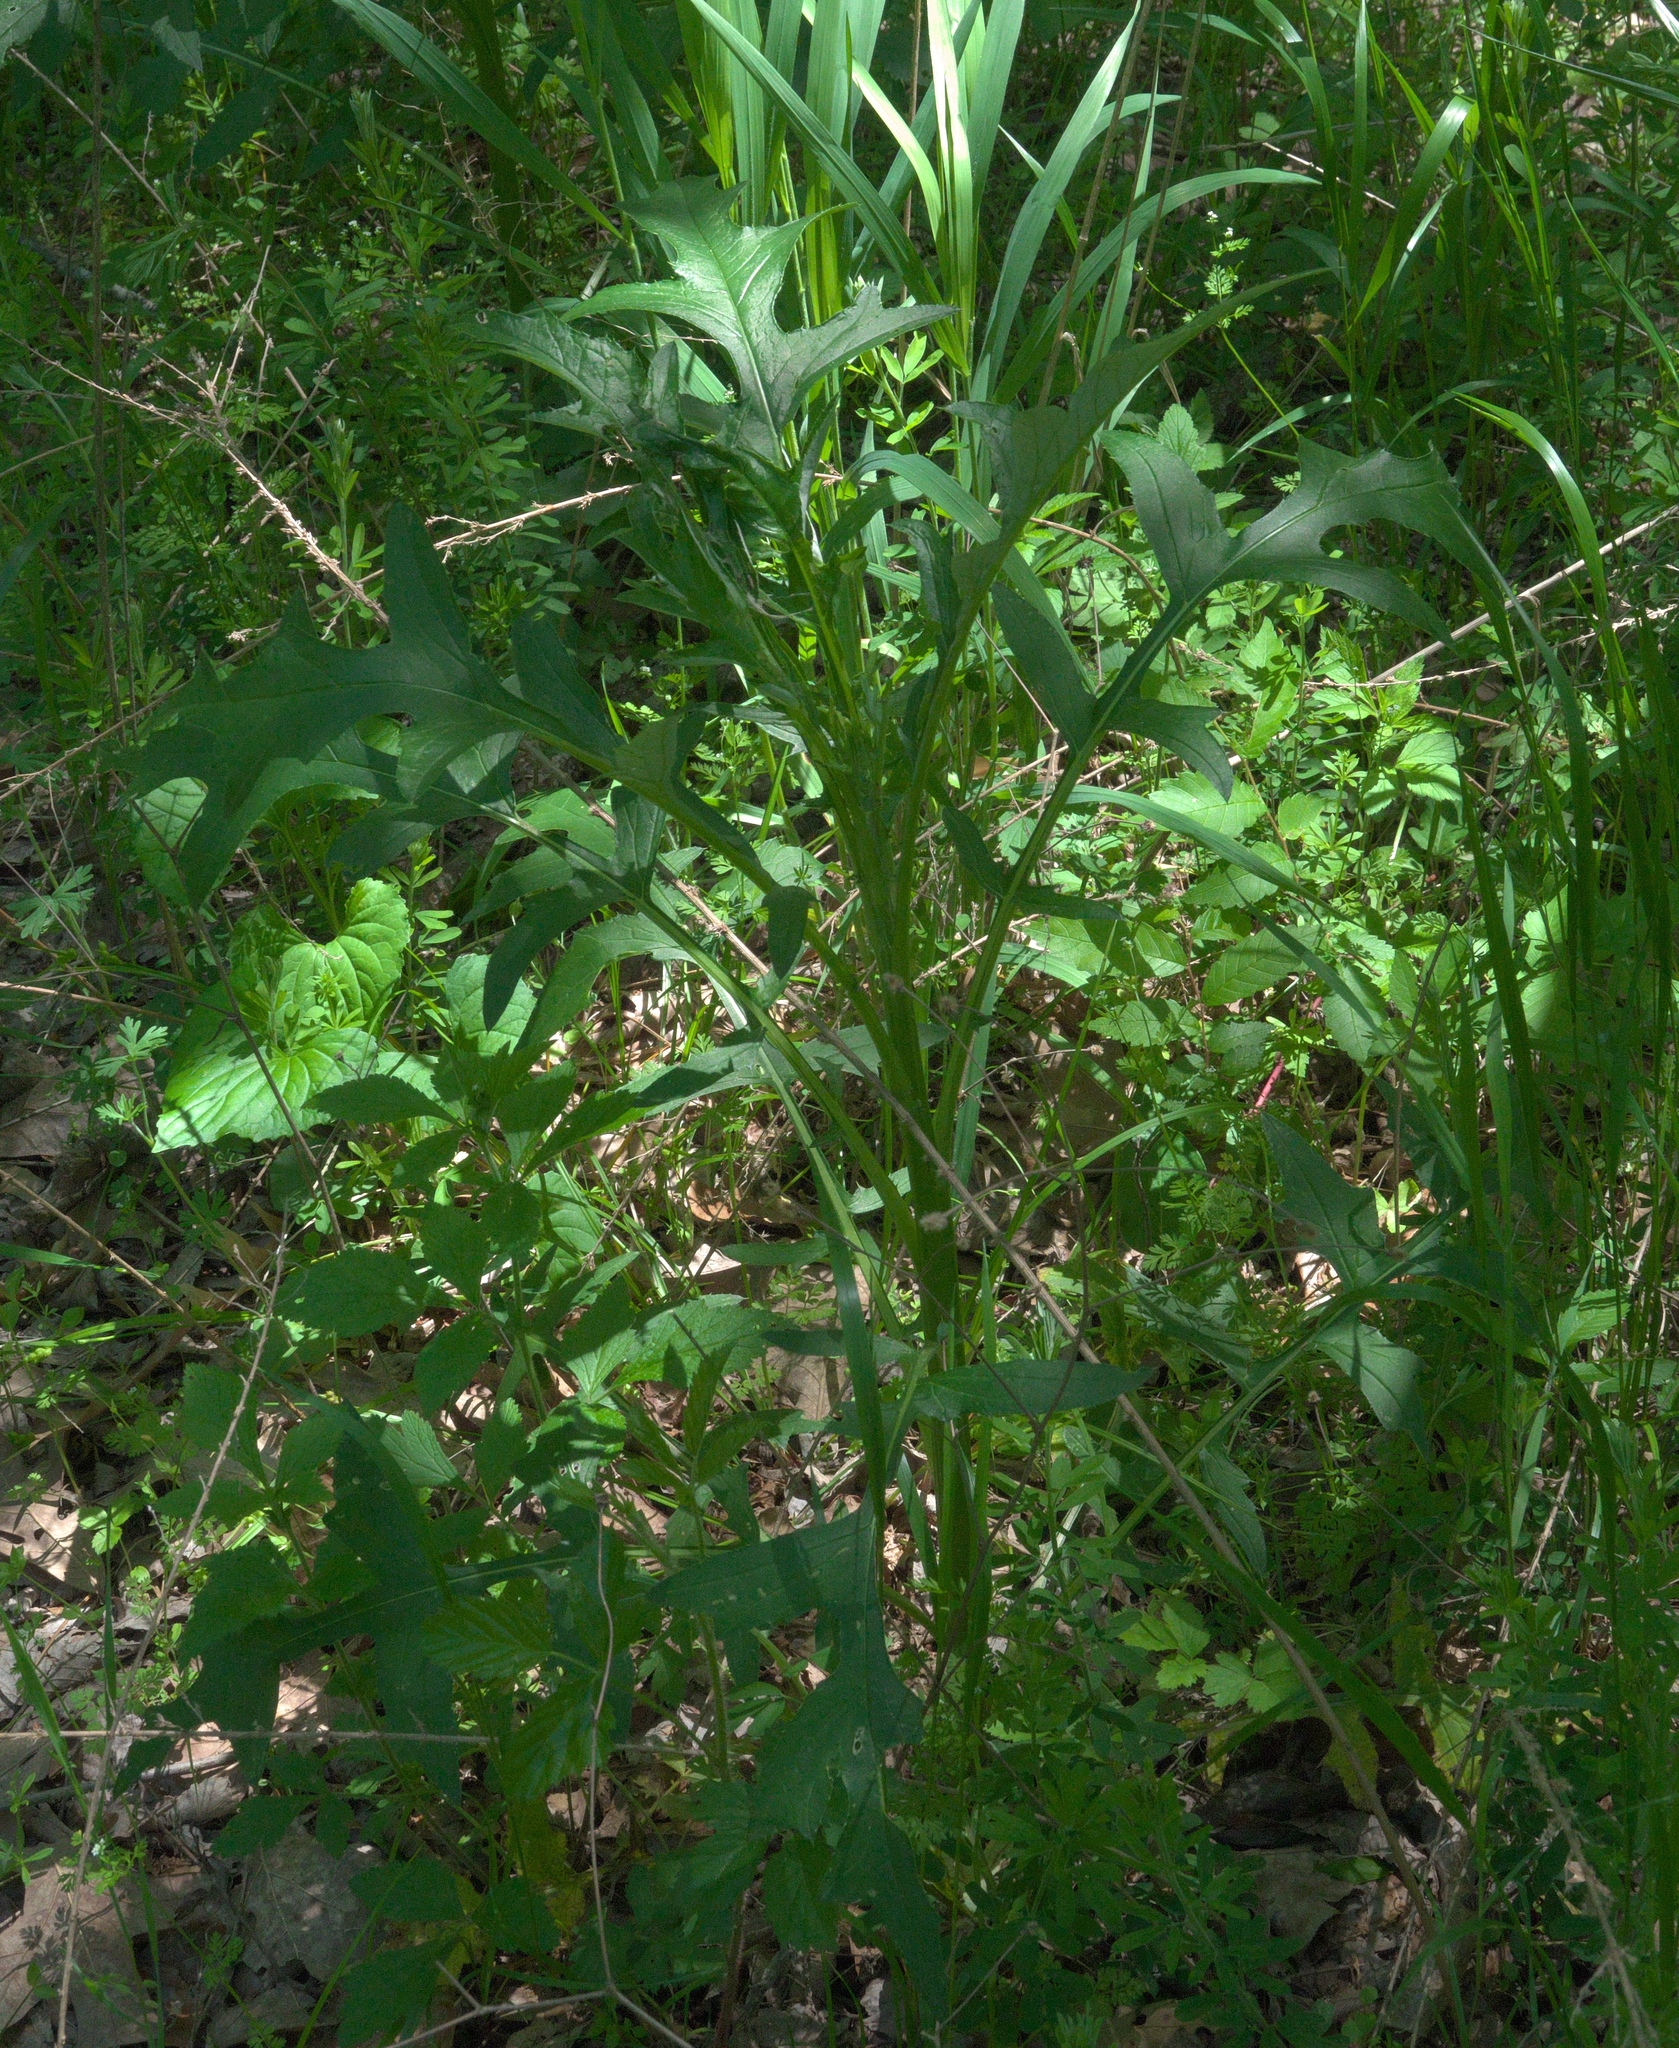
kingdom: Plantae
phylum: Tracheophyta
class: Magnoliopsida
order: Asterales
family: Asteraceae
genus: Lactuca
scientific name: Lactuca floridana
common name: Woodland lettuce
